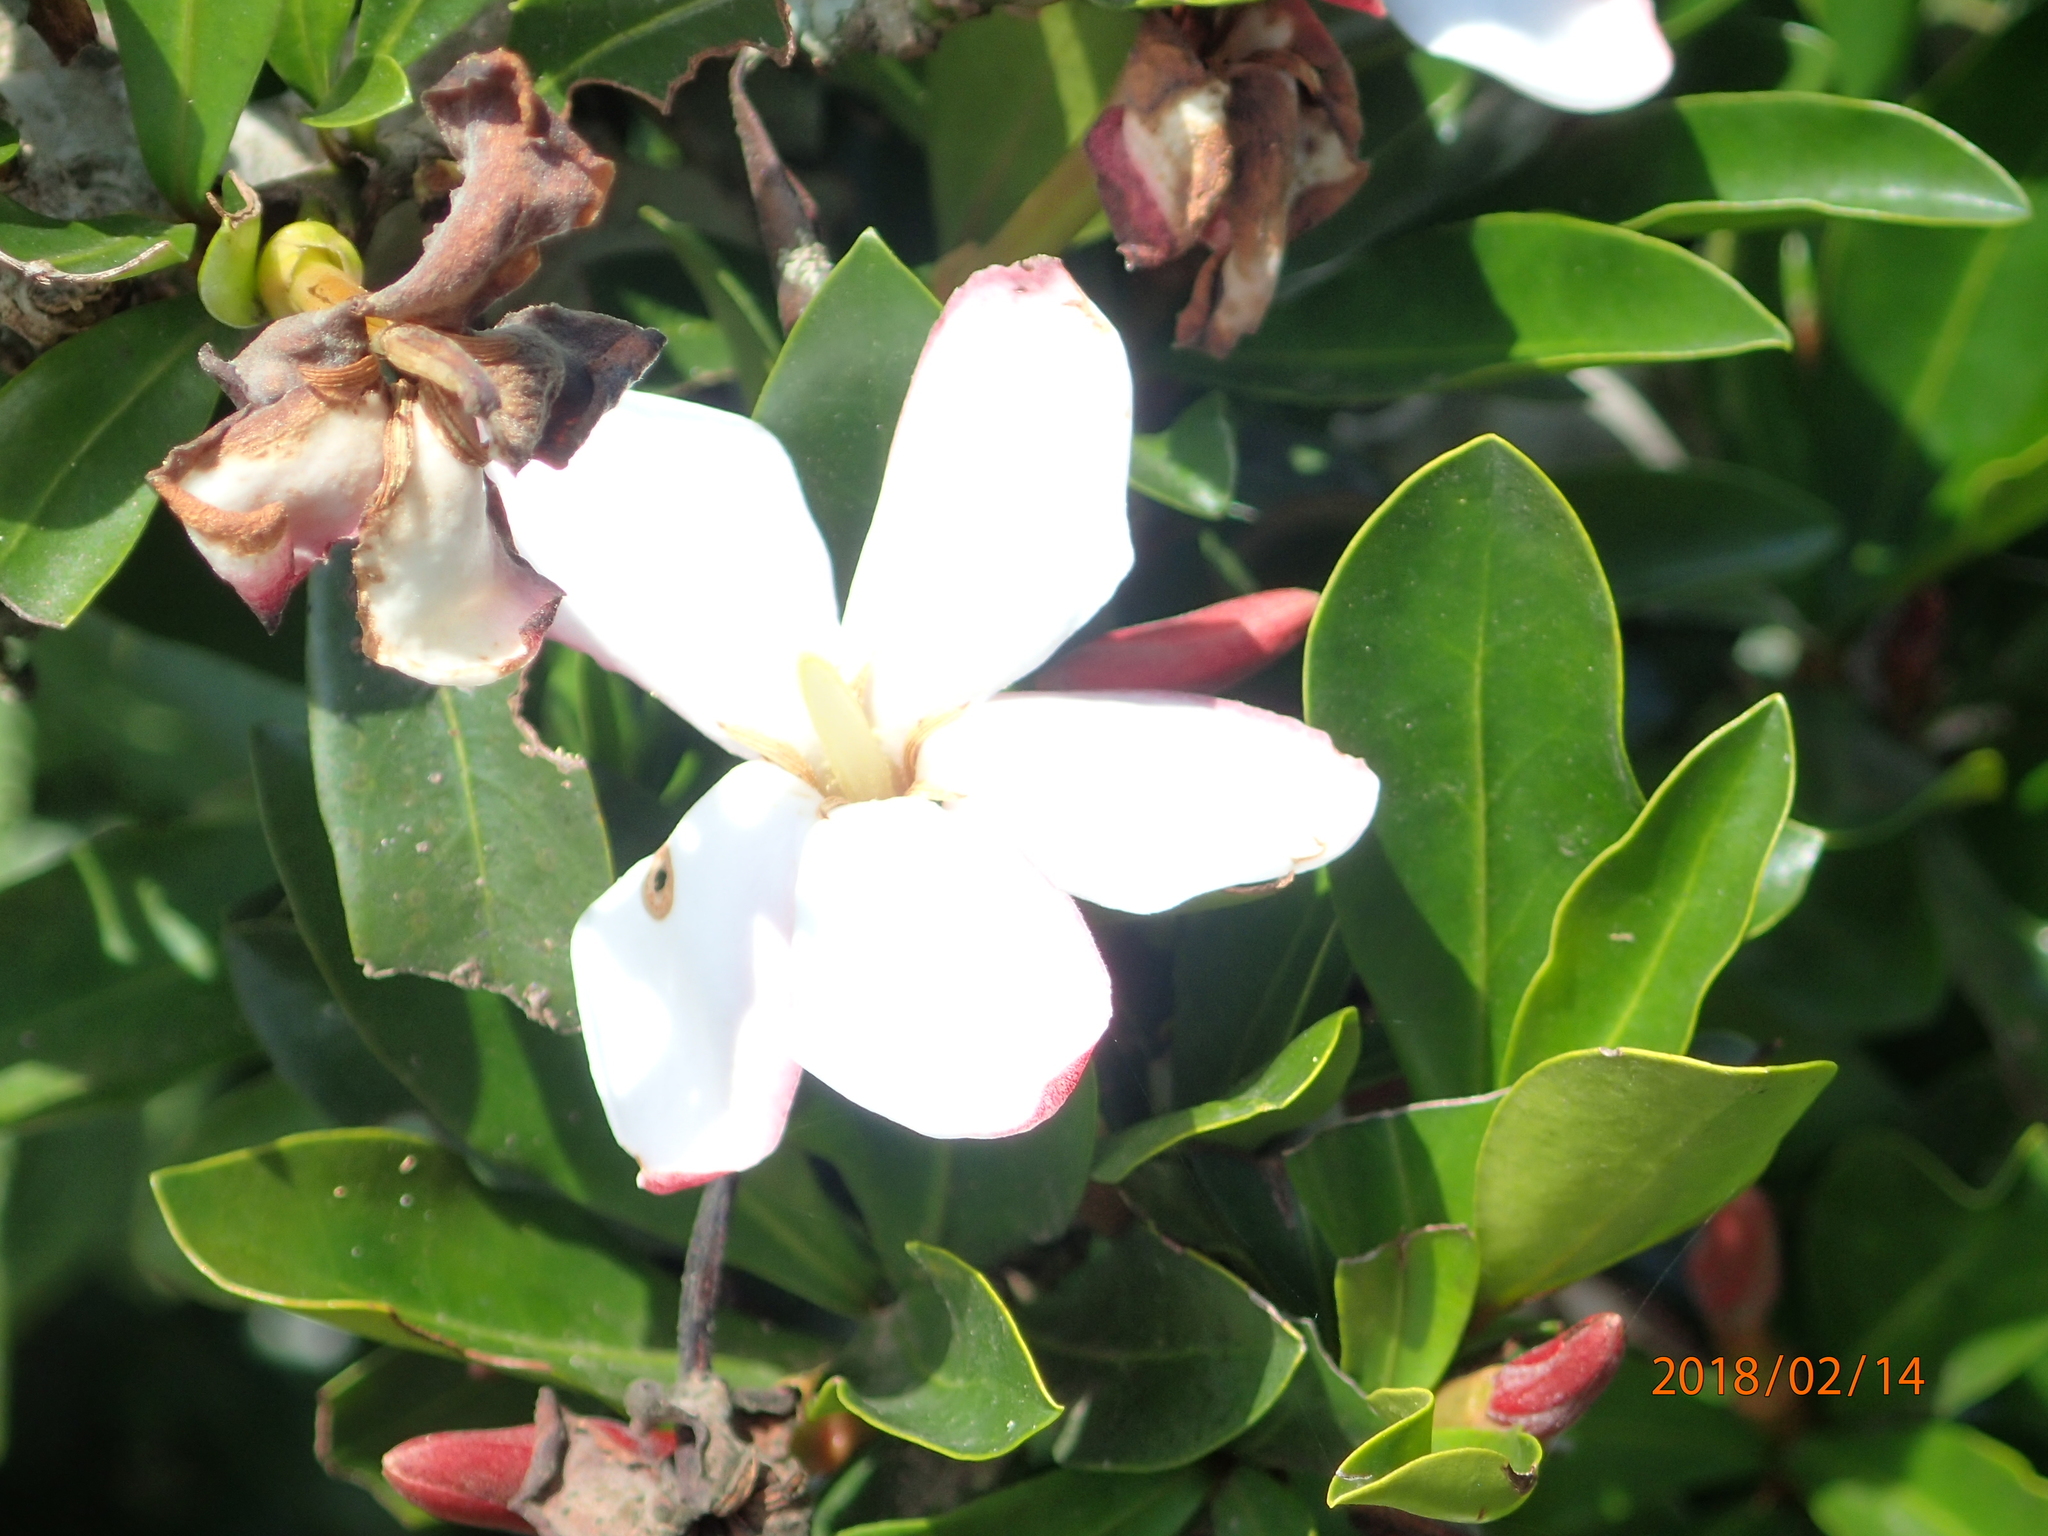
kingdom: Plantae
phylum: Tracheophyta
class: Magnoliopsida
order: Gentianales
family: Rubiaceae
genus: Hyperacanthus
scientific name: Hyperacanthus amoenus
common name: Spiny gardenia
